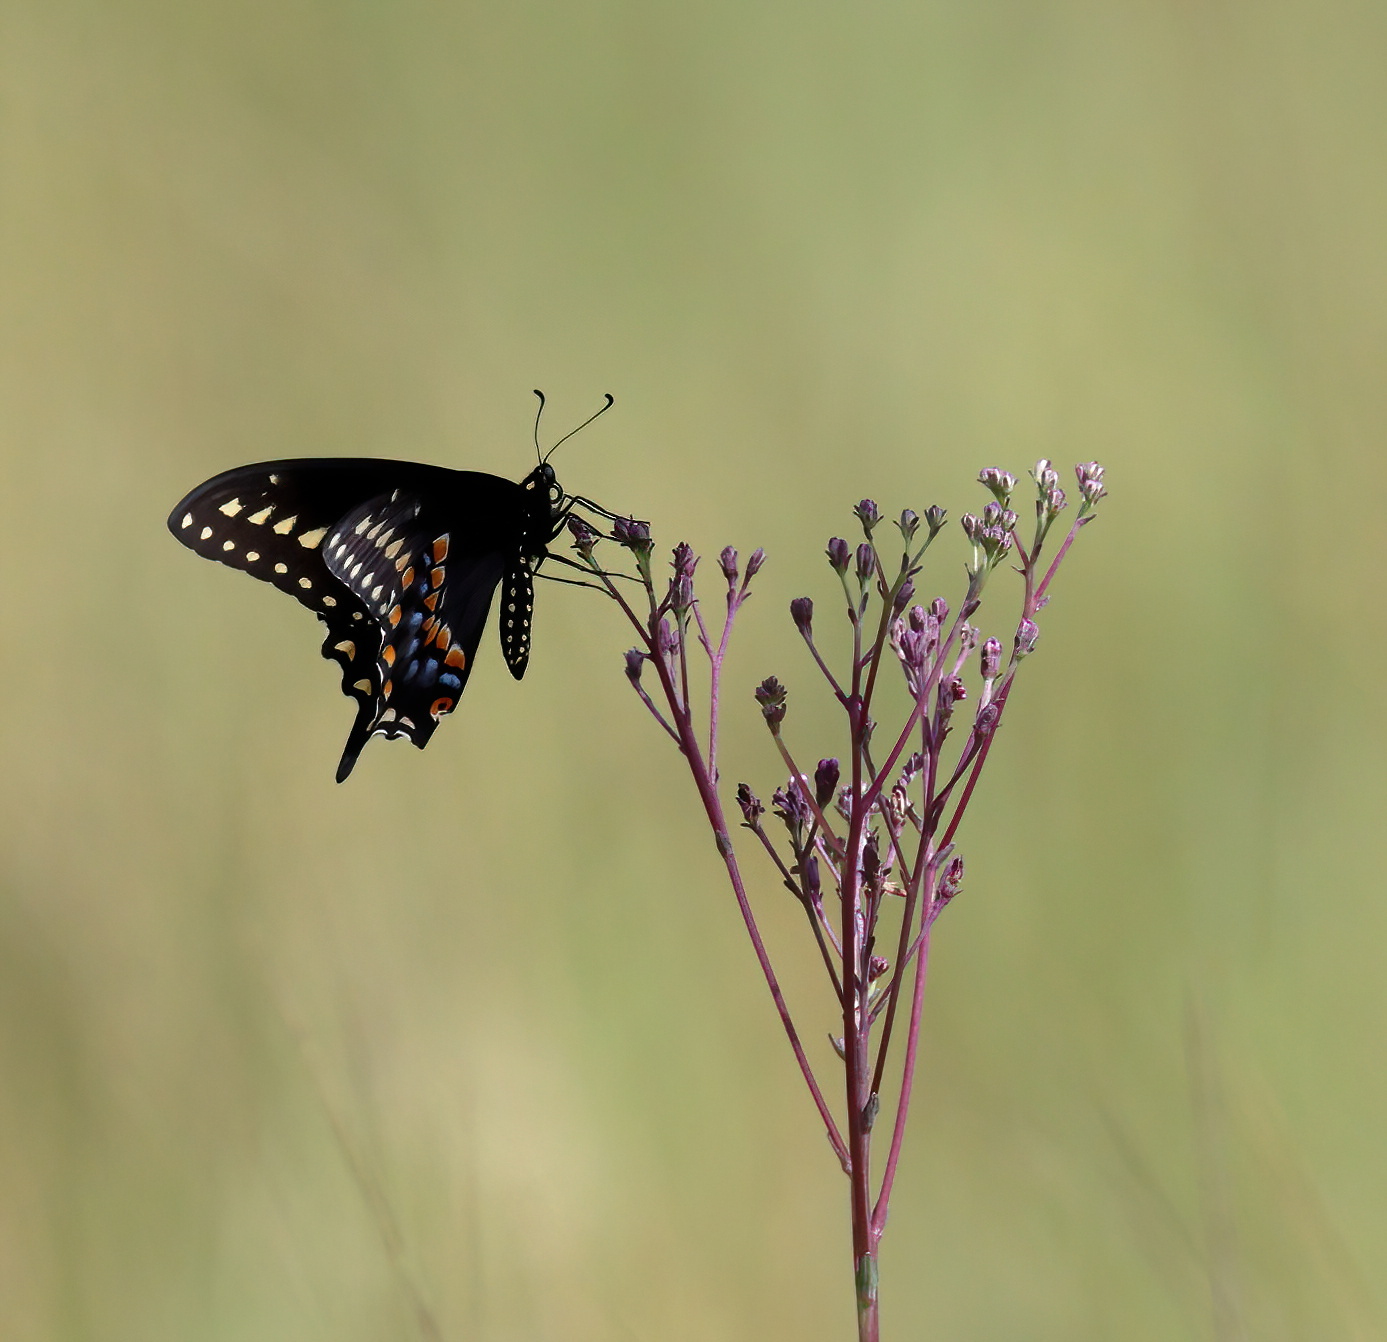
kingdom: Animalia
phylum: Arthropoda
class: Insecta
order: Lepidoptera
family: Papilionidae
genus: Papilio
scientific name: Papilio polyxenes
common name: Black swallowtail
